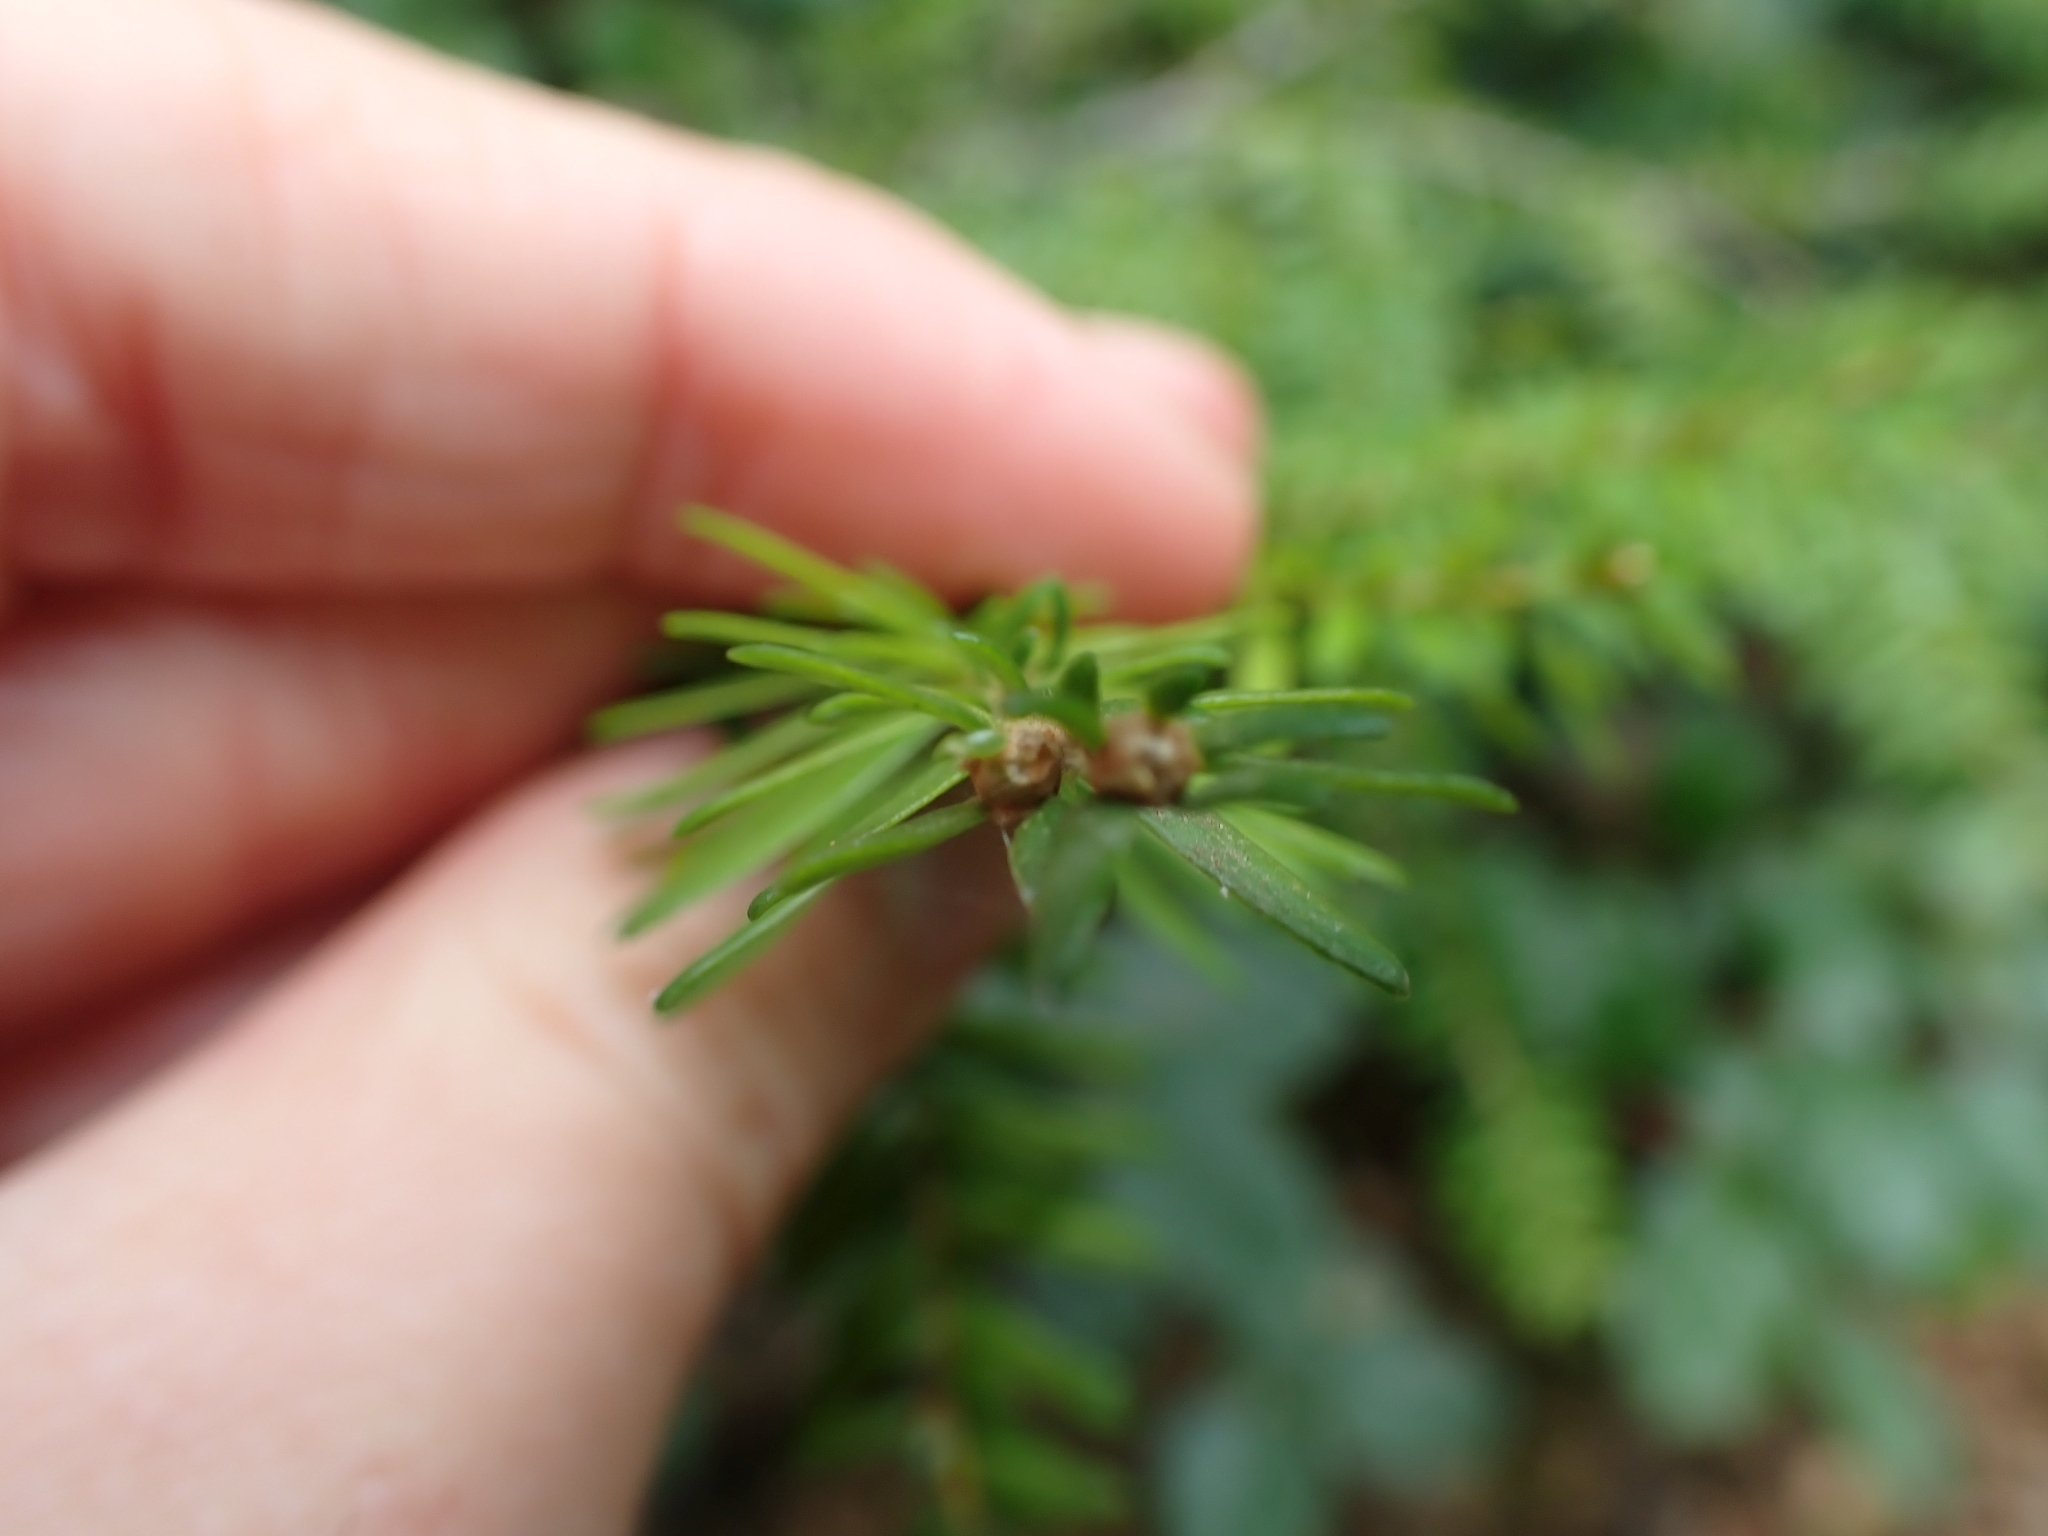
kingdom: Plantae
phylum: Tracheophyta
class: Pinopsida
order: Pinales
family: Pinaceae
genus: Tsuga
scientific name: Tsuga heterophylla
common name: Western hemlock
